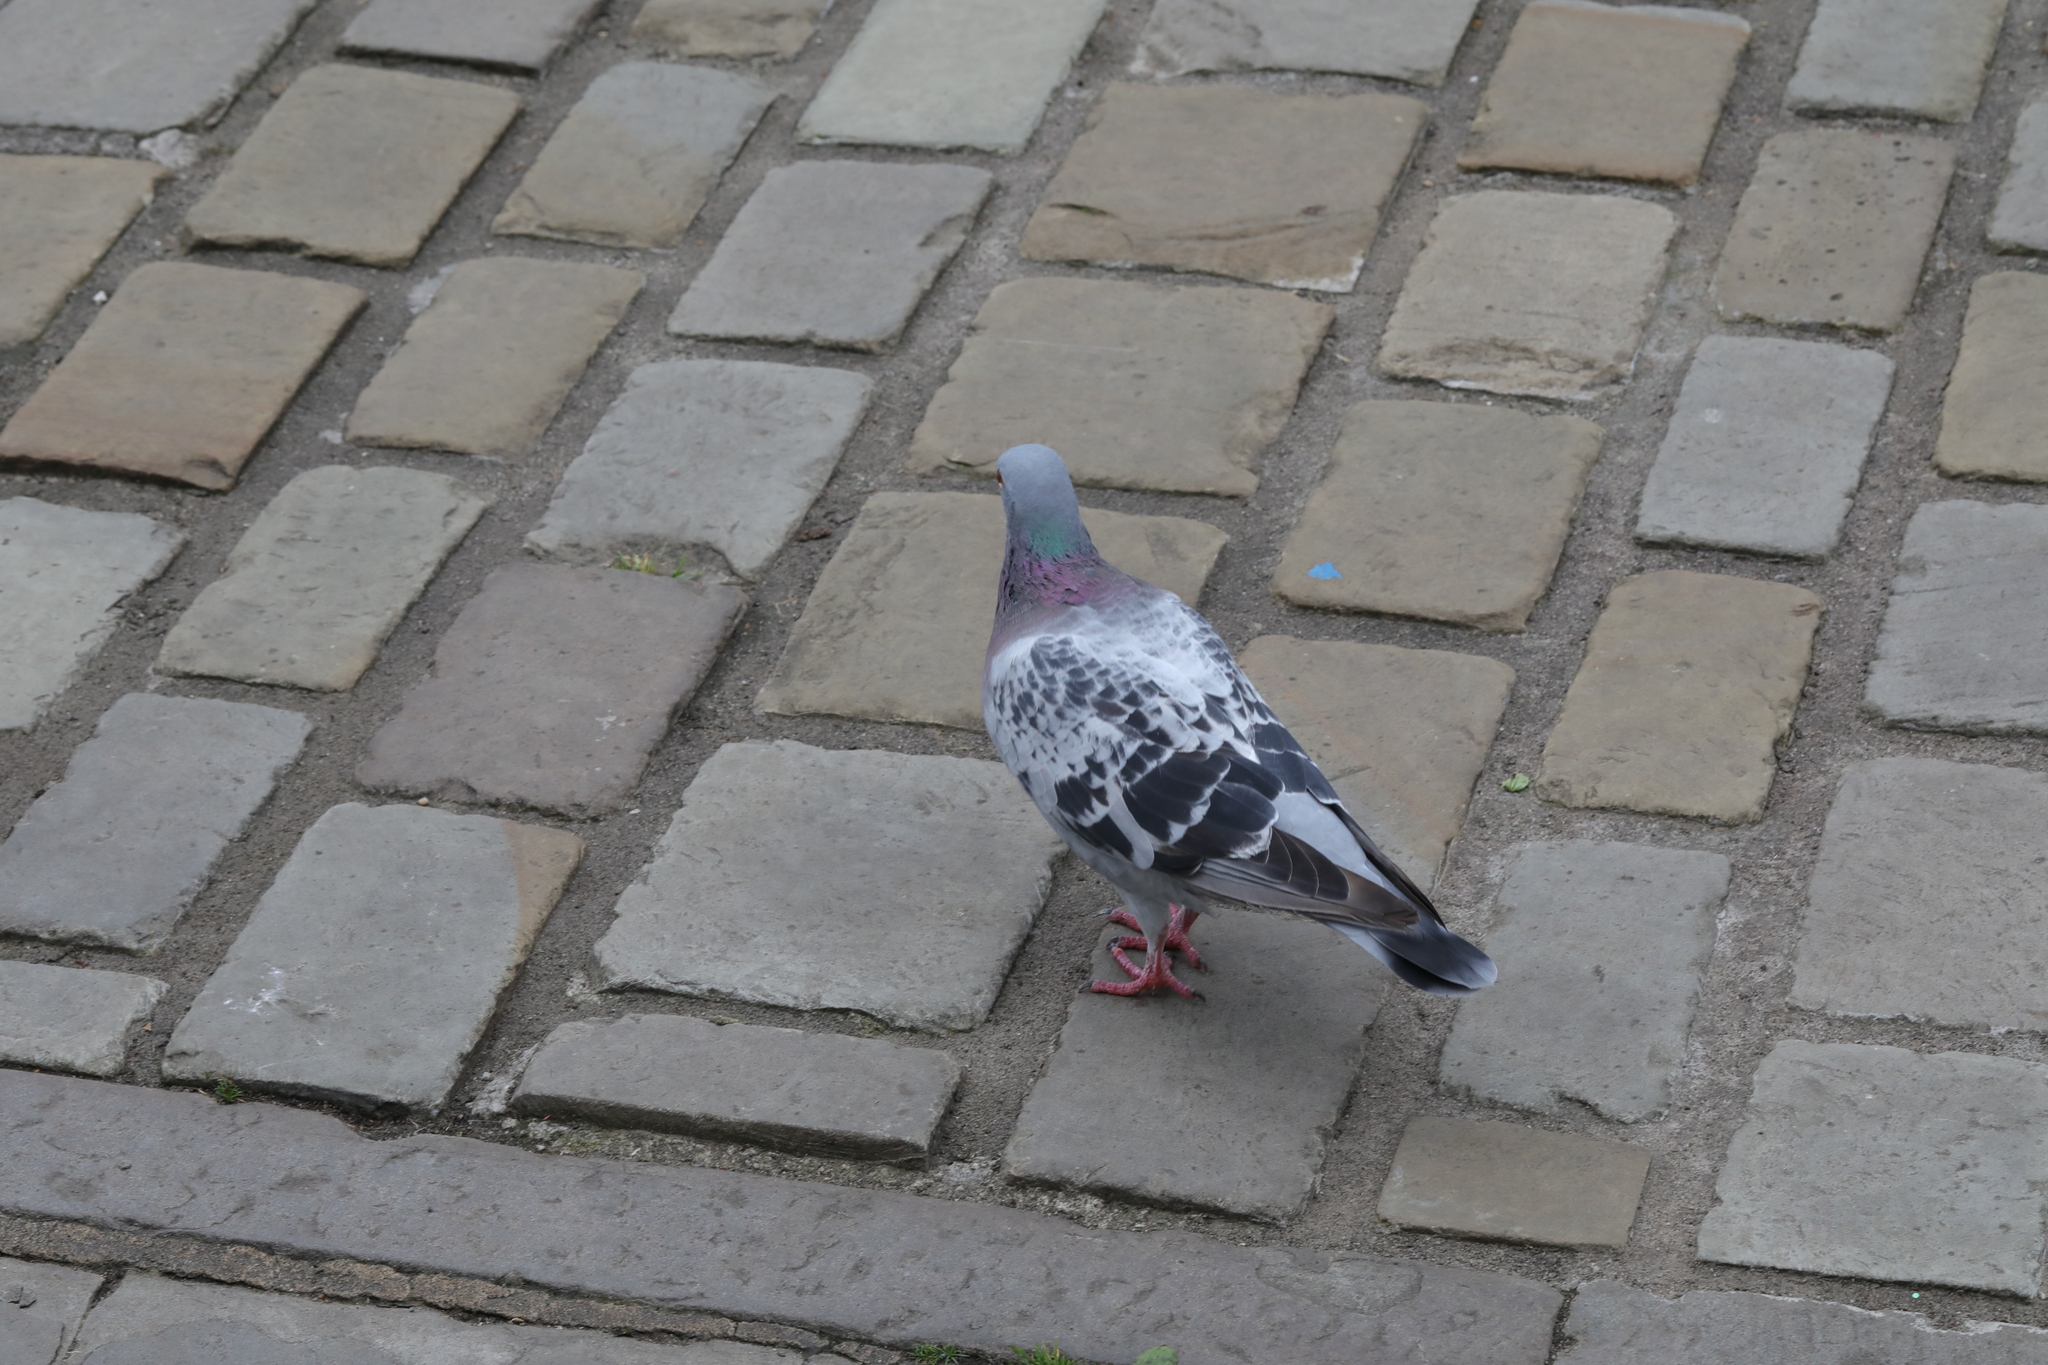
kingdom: Animalia
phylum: Chordata
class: Aves
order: Columbiformes
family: Columbidae
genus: Columba
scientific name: Columba livia
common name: Rock pigeon
